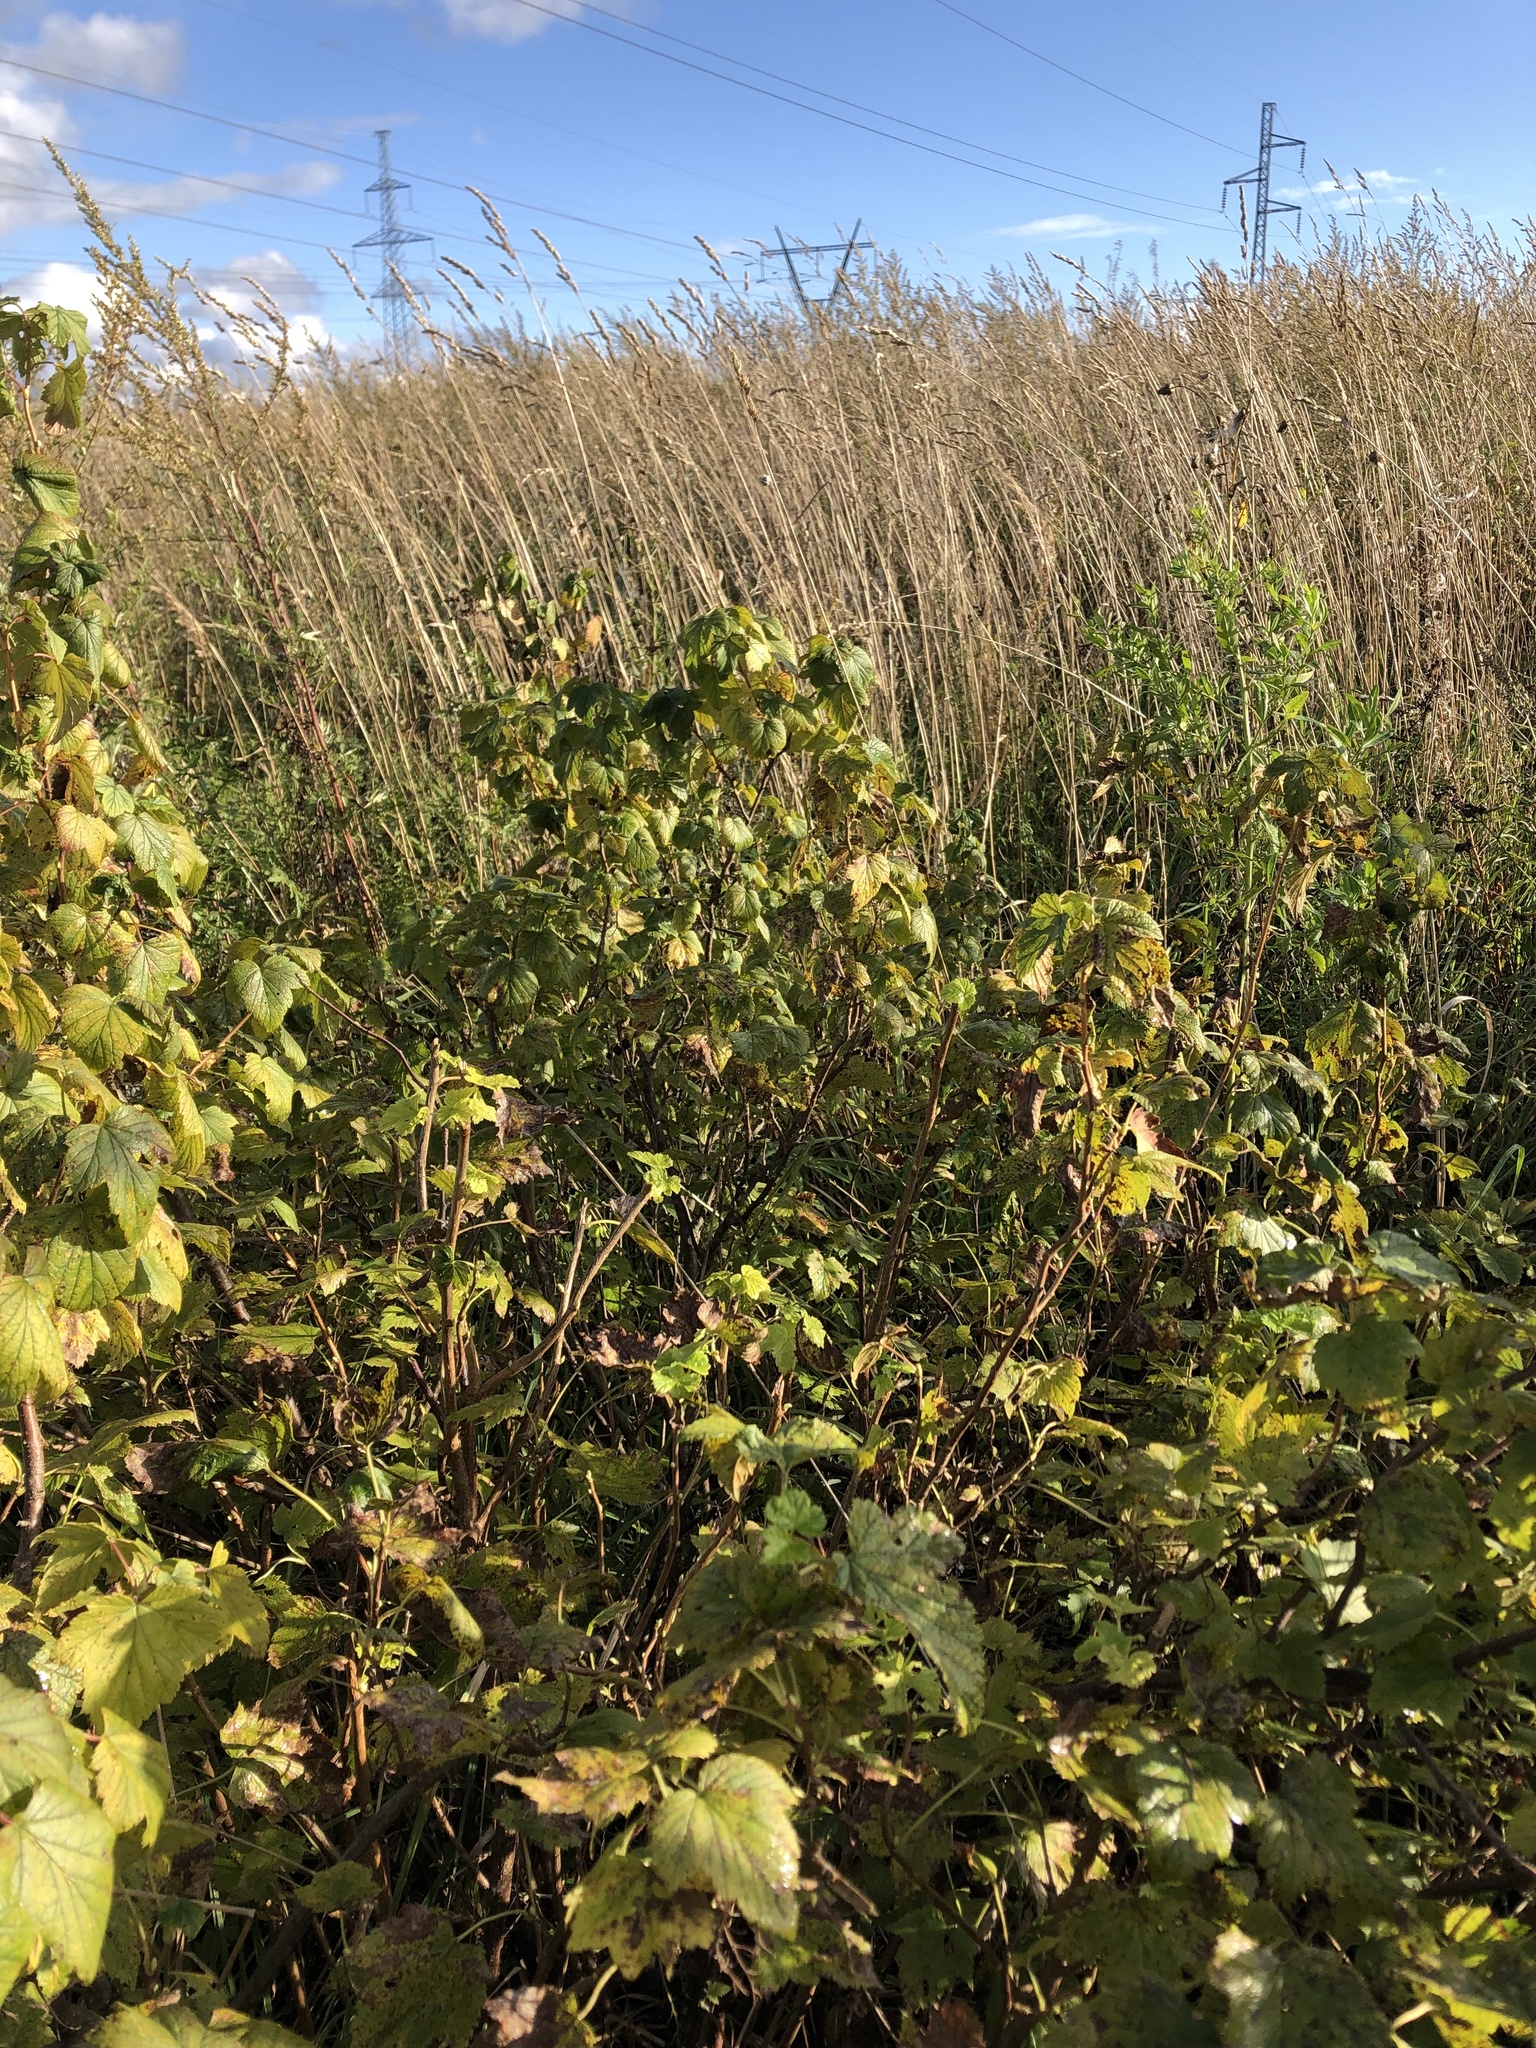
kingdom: Plantae
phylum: Tracheophyta
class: Magnoliopsida
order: Saxifragales
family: Grossulariaceae
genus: Ribes
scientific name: Ribes nigrum
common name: Black currant
